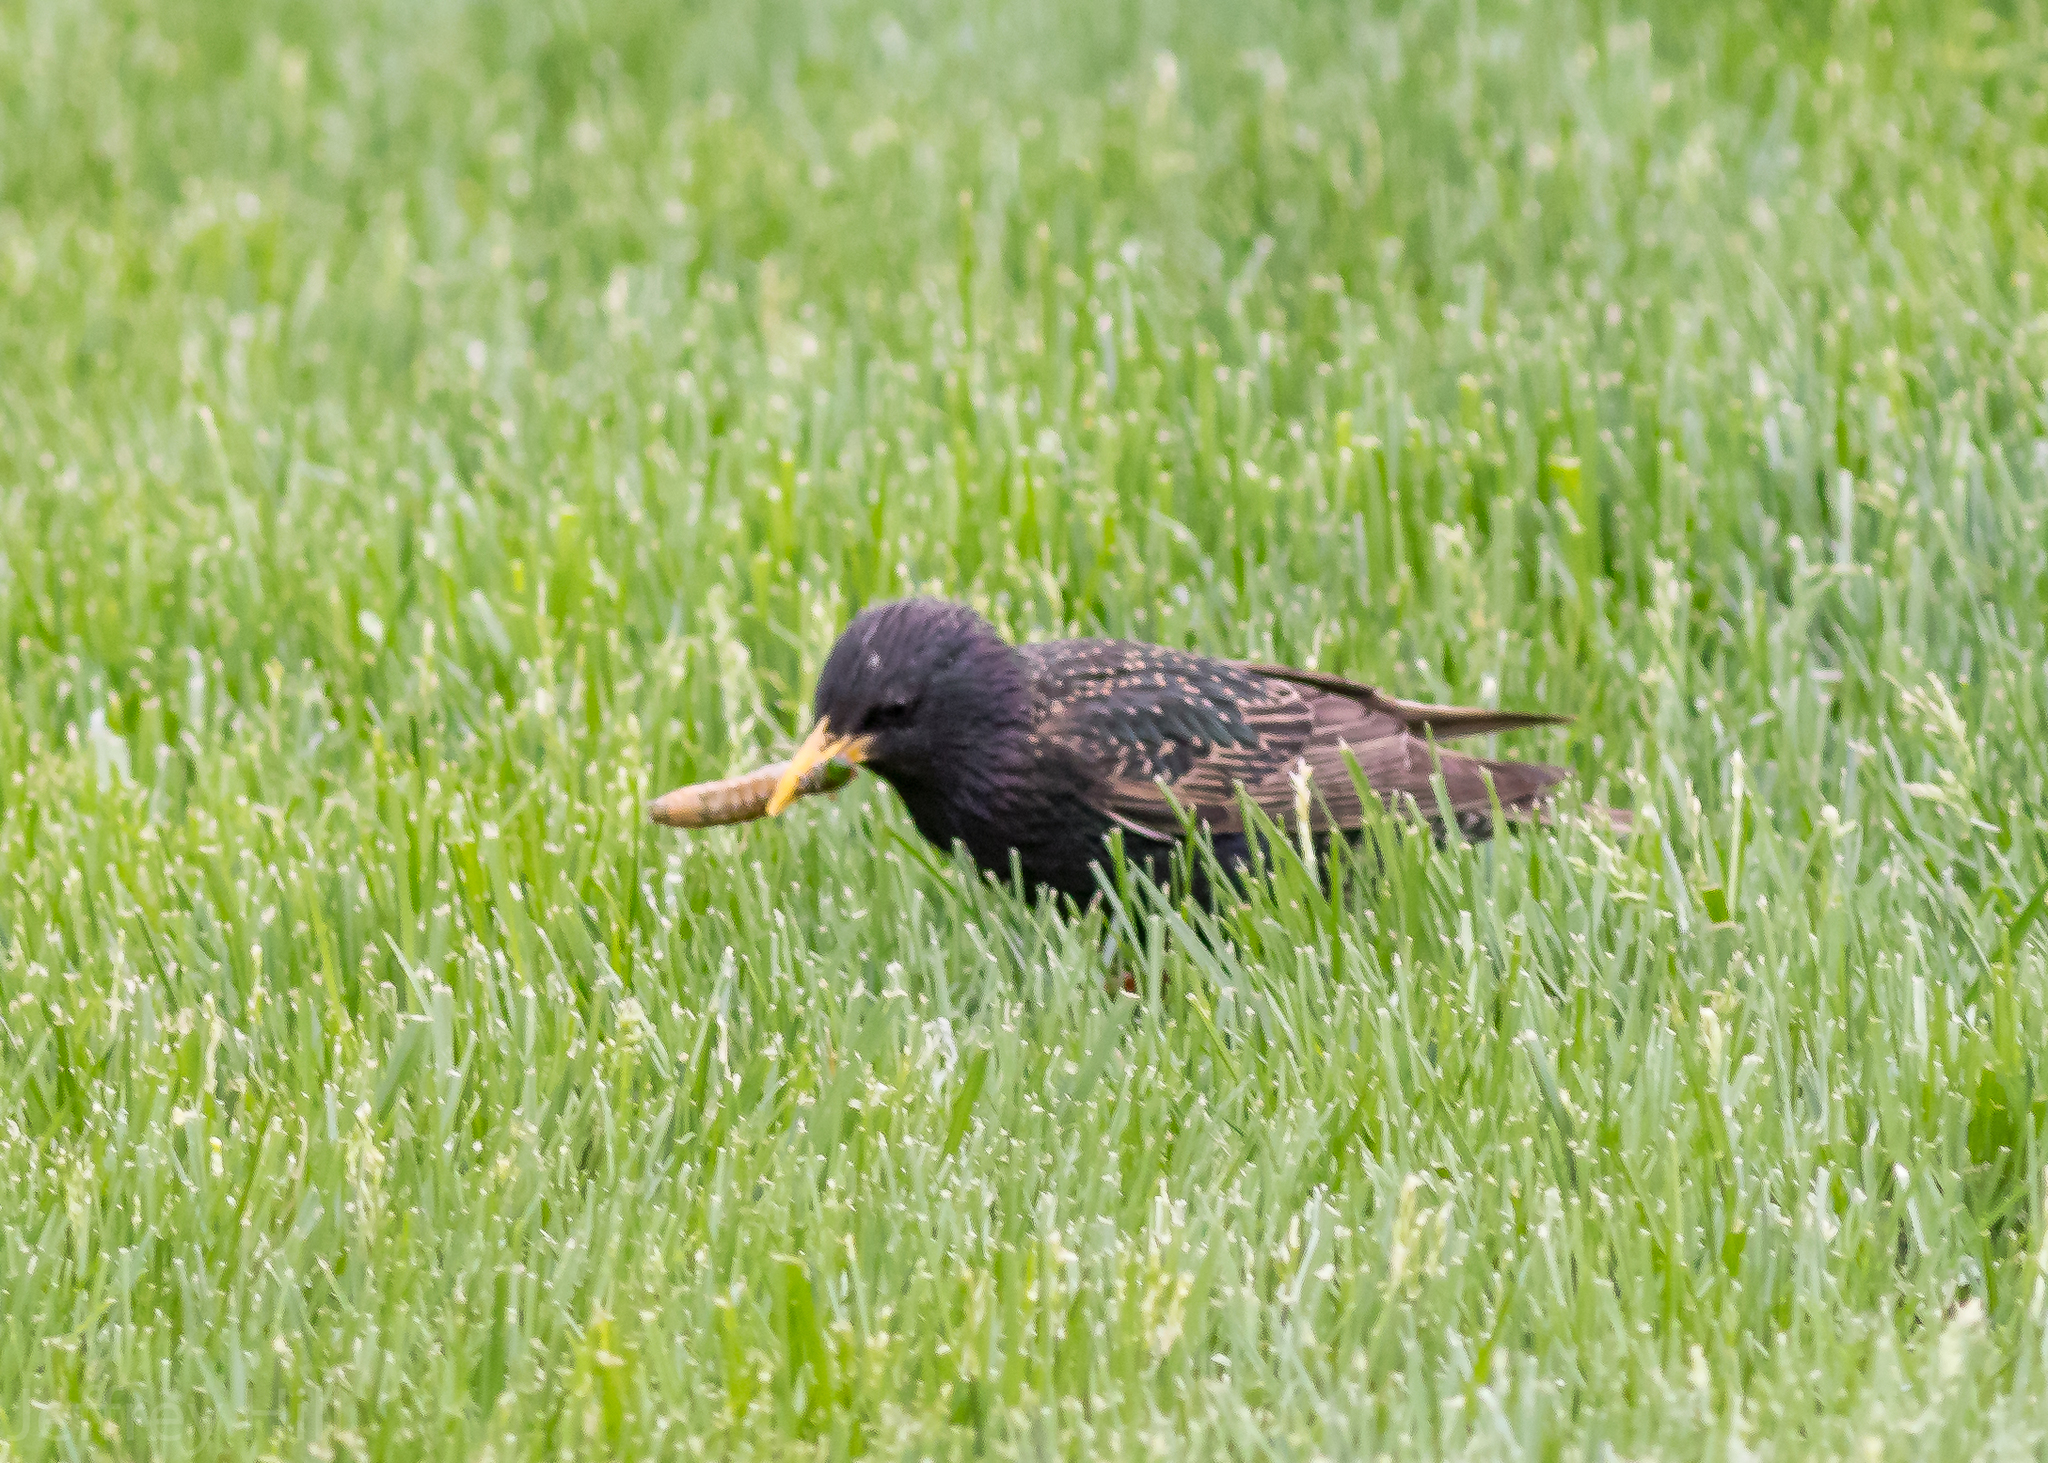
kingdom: Animalia
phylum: Chordata
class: Aves
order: Passeriformes
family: Sturnidae
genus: Sturnus
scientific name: Sturnus vulgaris
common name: Common starling
